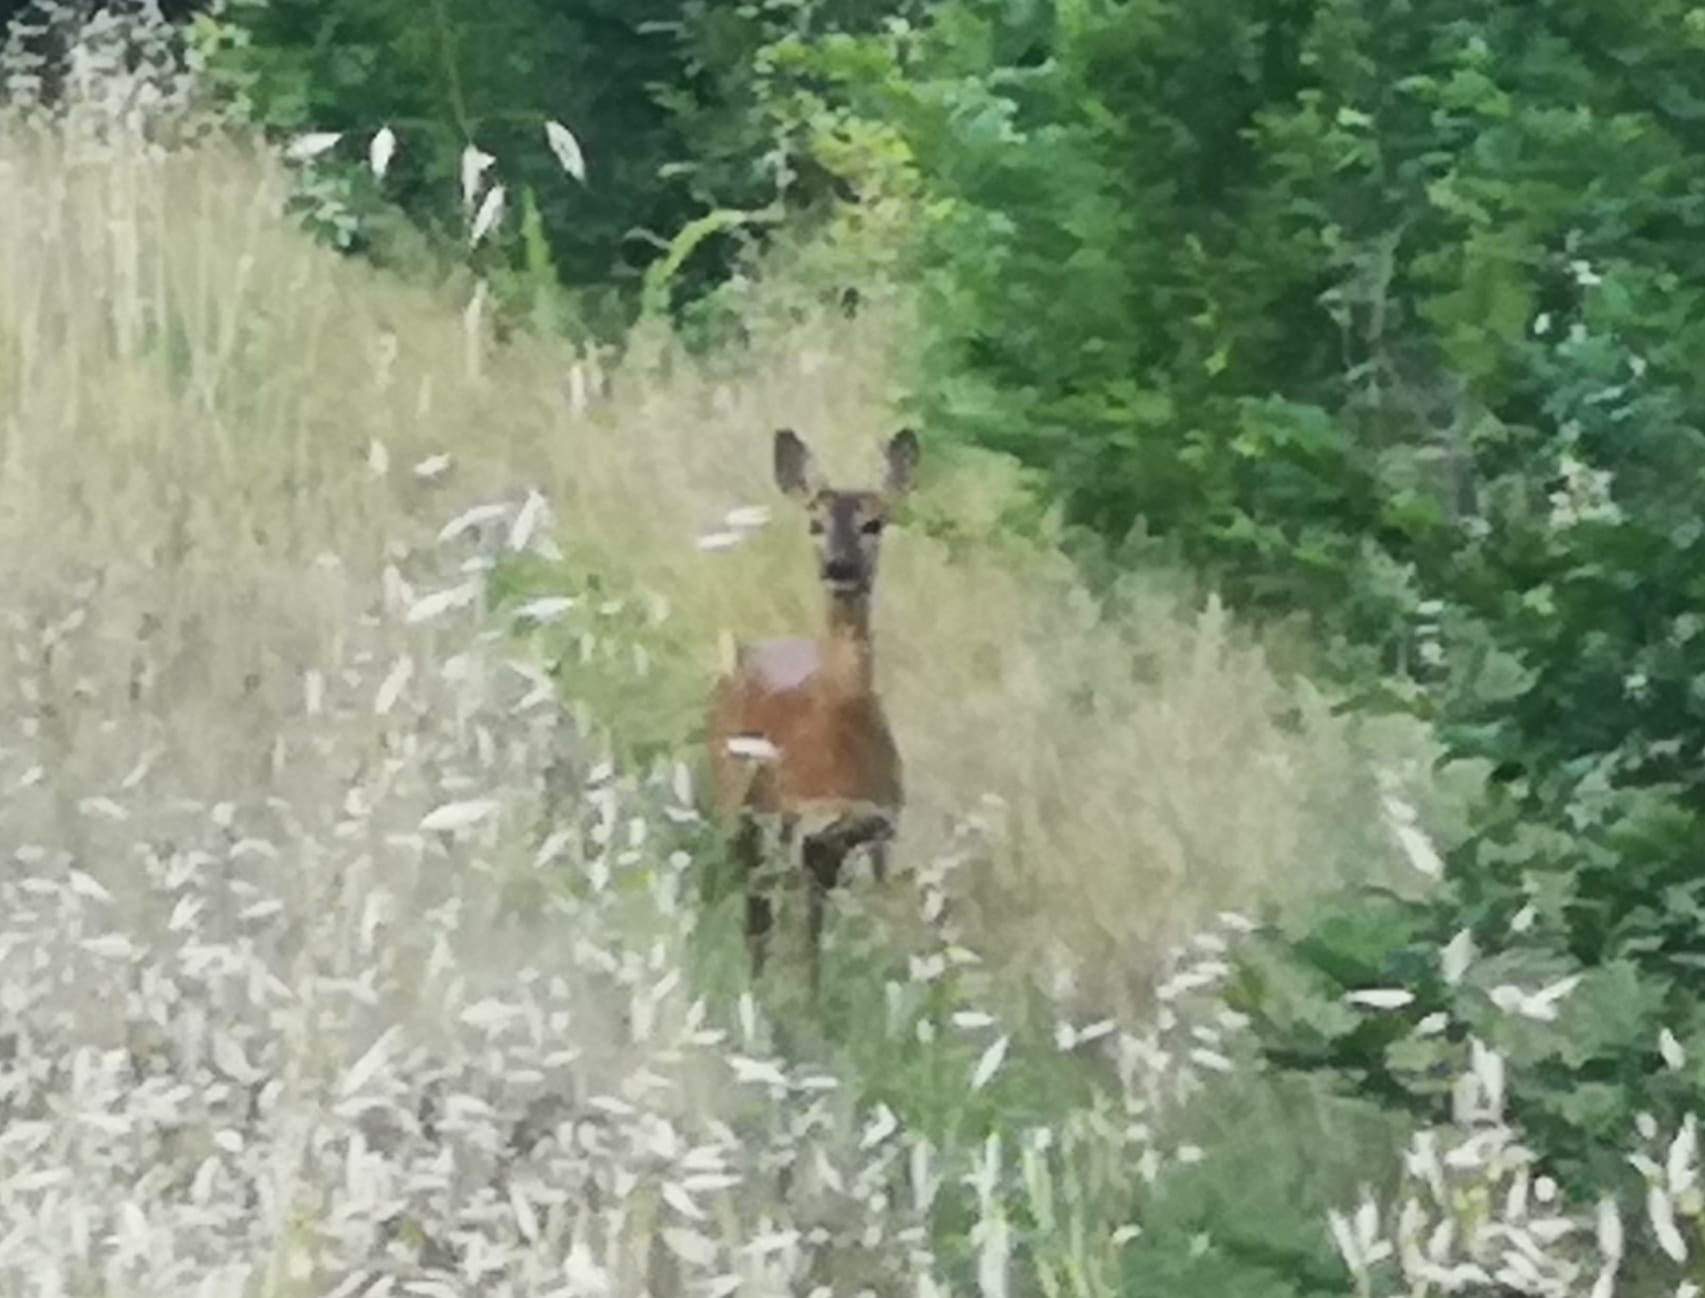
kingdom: Animalia
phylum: Chordata
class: Mammalia
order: Artiodactyla
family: Cervidae
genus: Capreolus
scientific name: Capreolus capreolus
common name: Western roe deer
